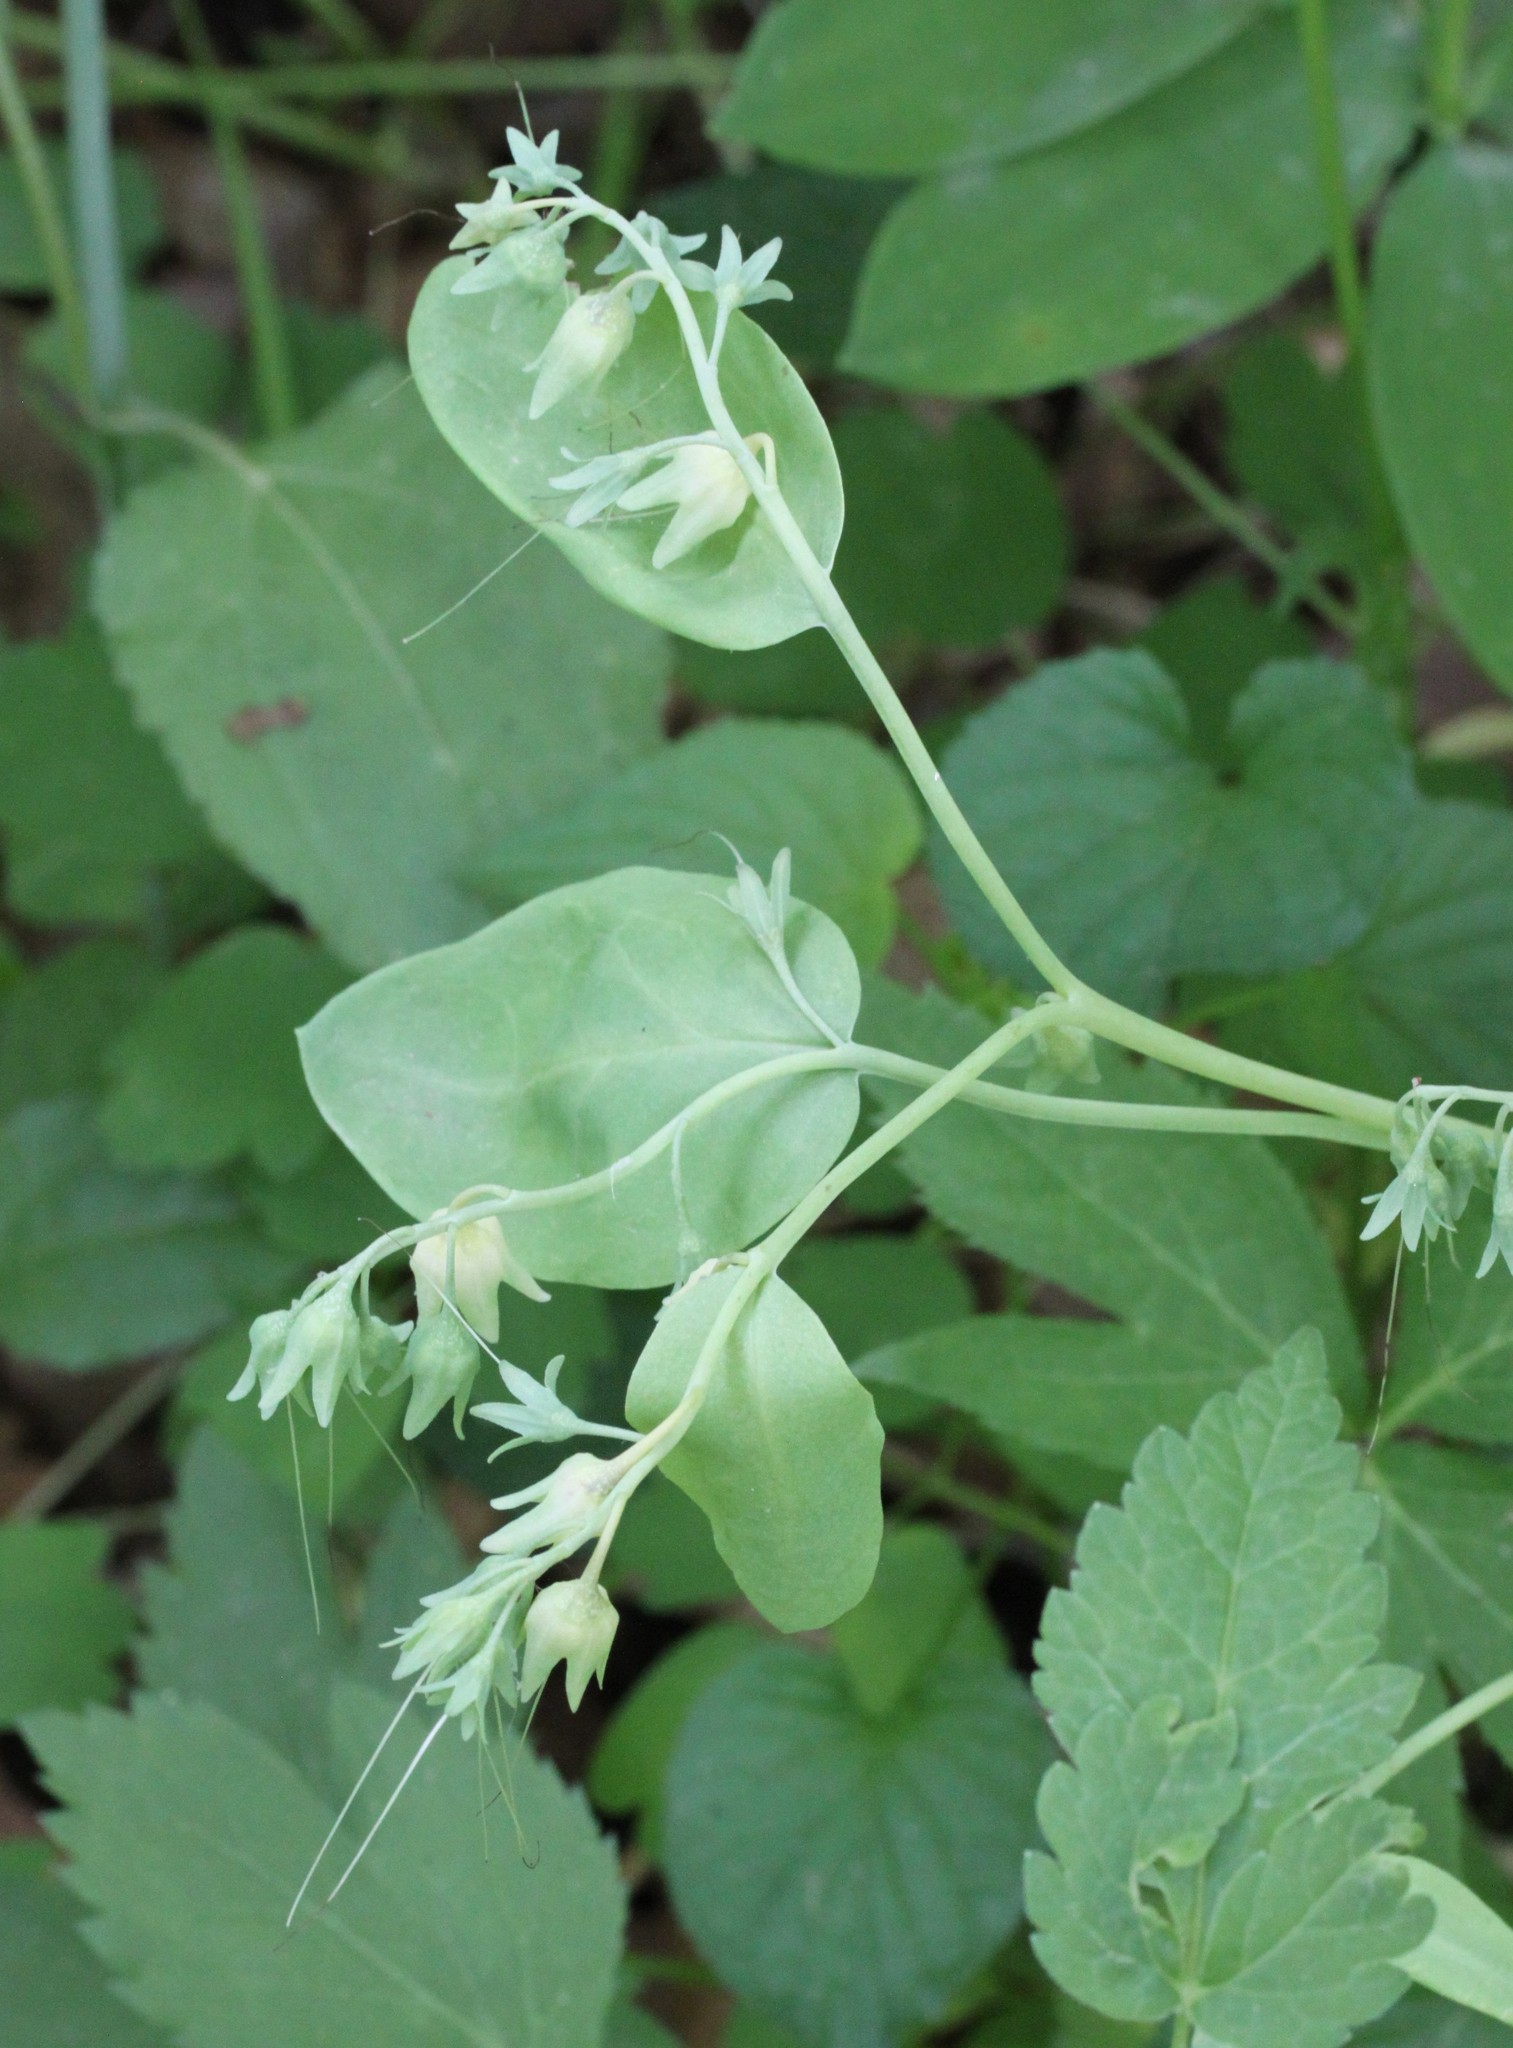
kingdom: Plantae
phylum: Tracheophyta
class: Magnoliopsida
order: Boraginales
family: Boraginaceae
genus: Mertensia
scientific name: Mertensia virginica
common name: Virginia bluebells
